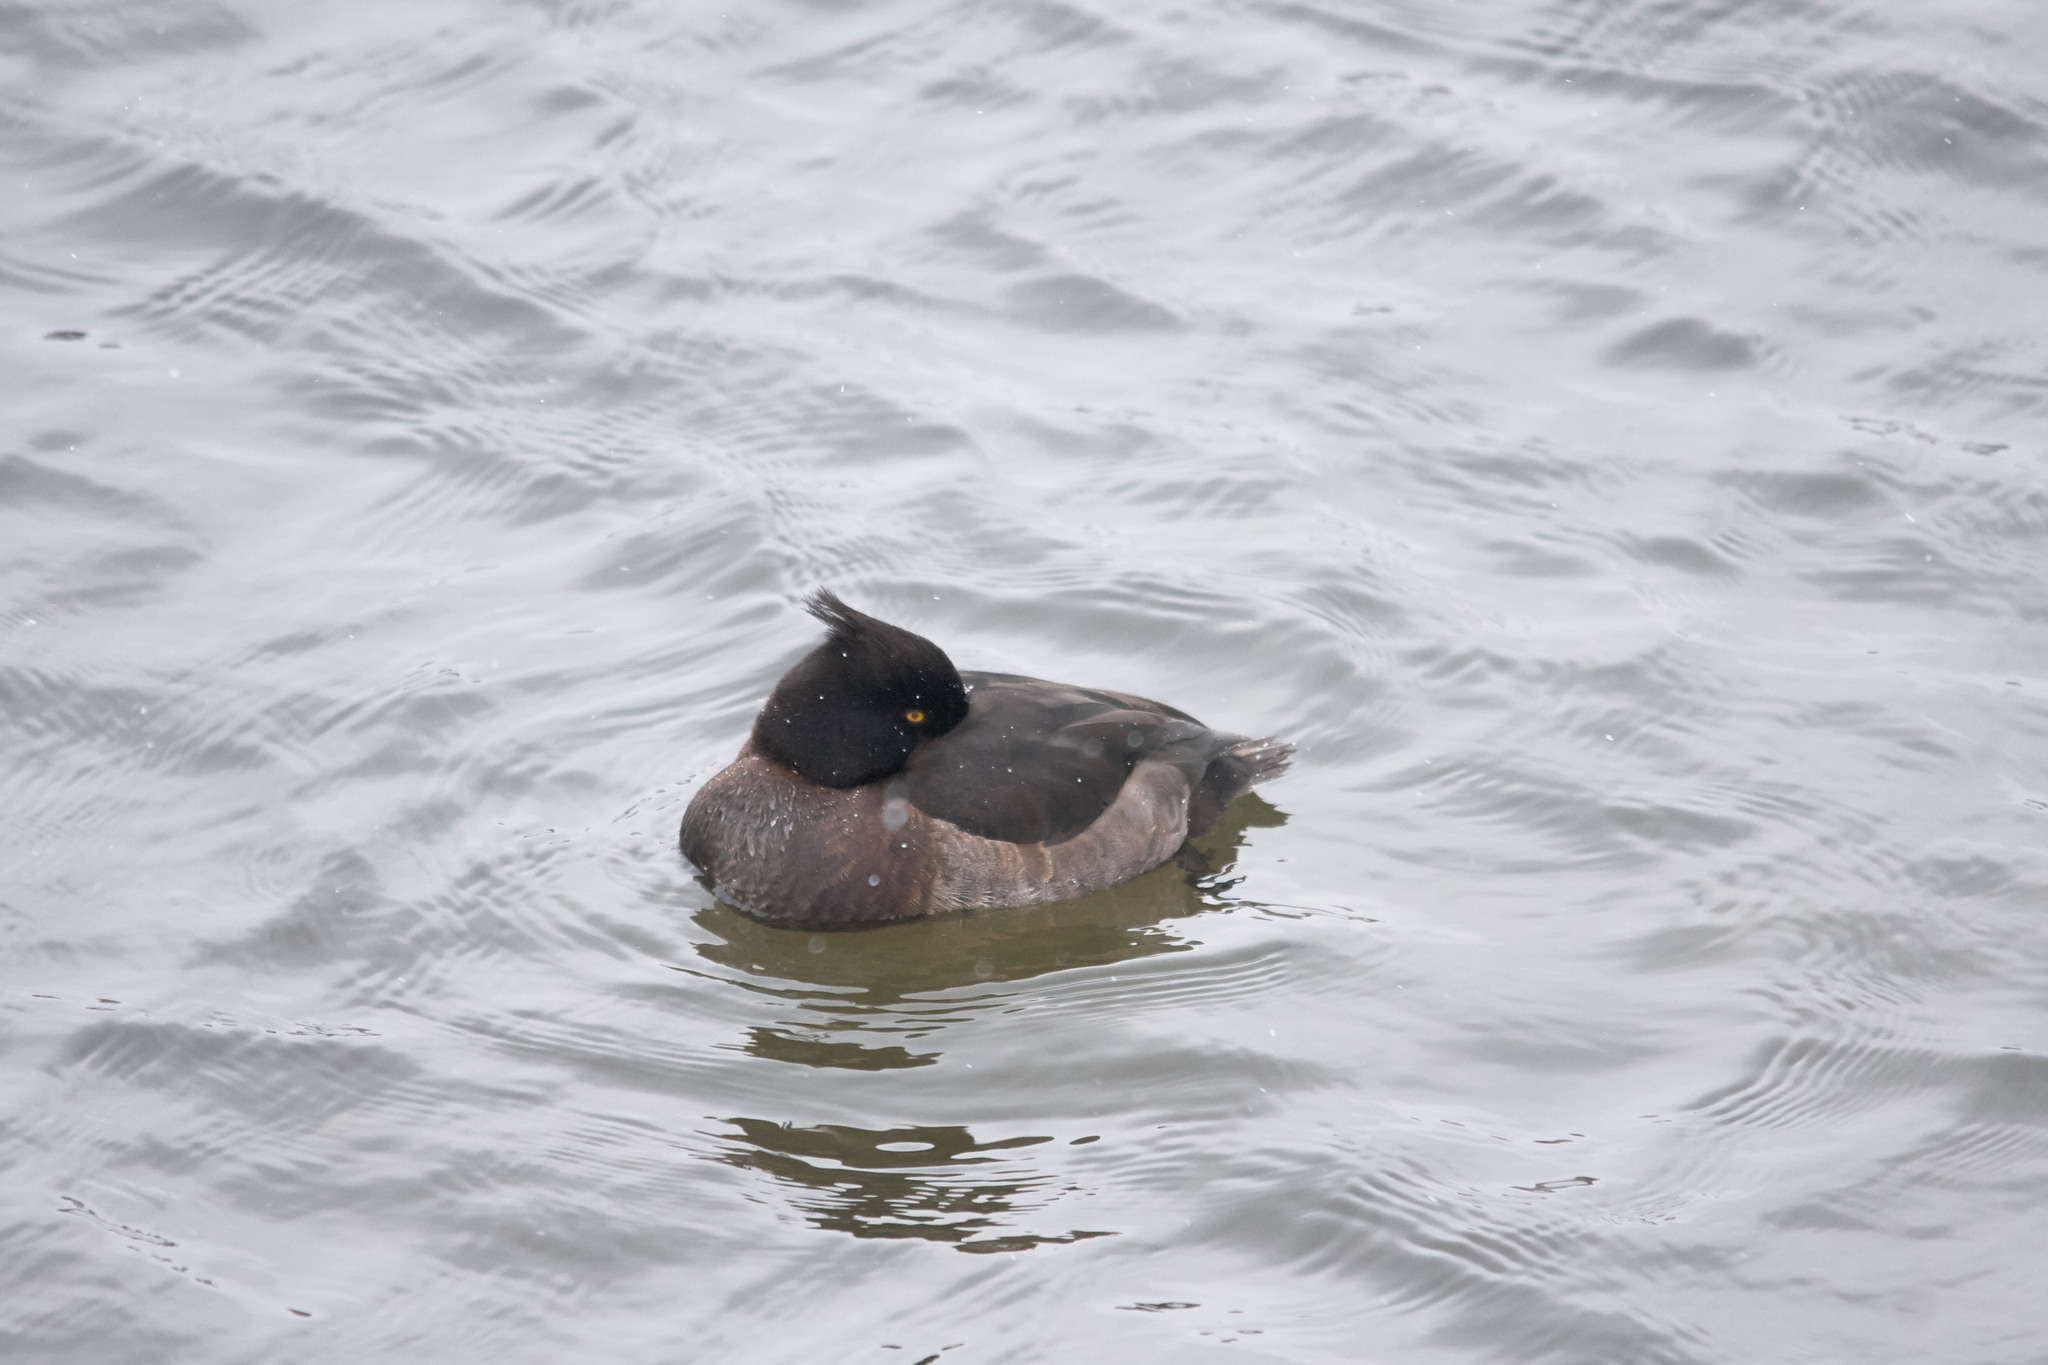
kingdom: Animalia
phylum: Chordata
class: Aves
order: Anseriformes
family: Anatidae
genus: Aythya
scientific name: Aythya fuligula
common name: Tufted duck
